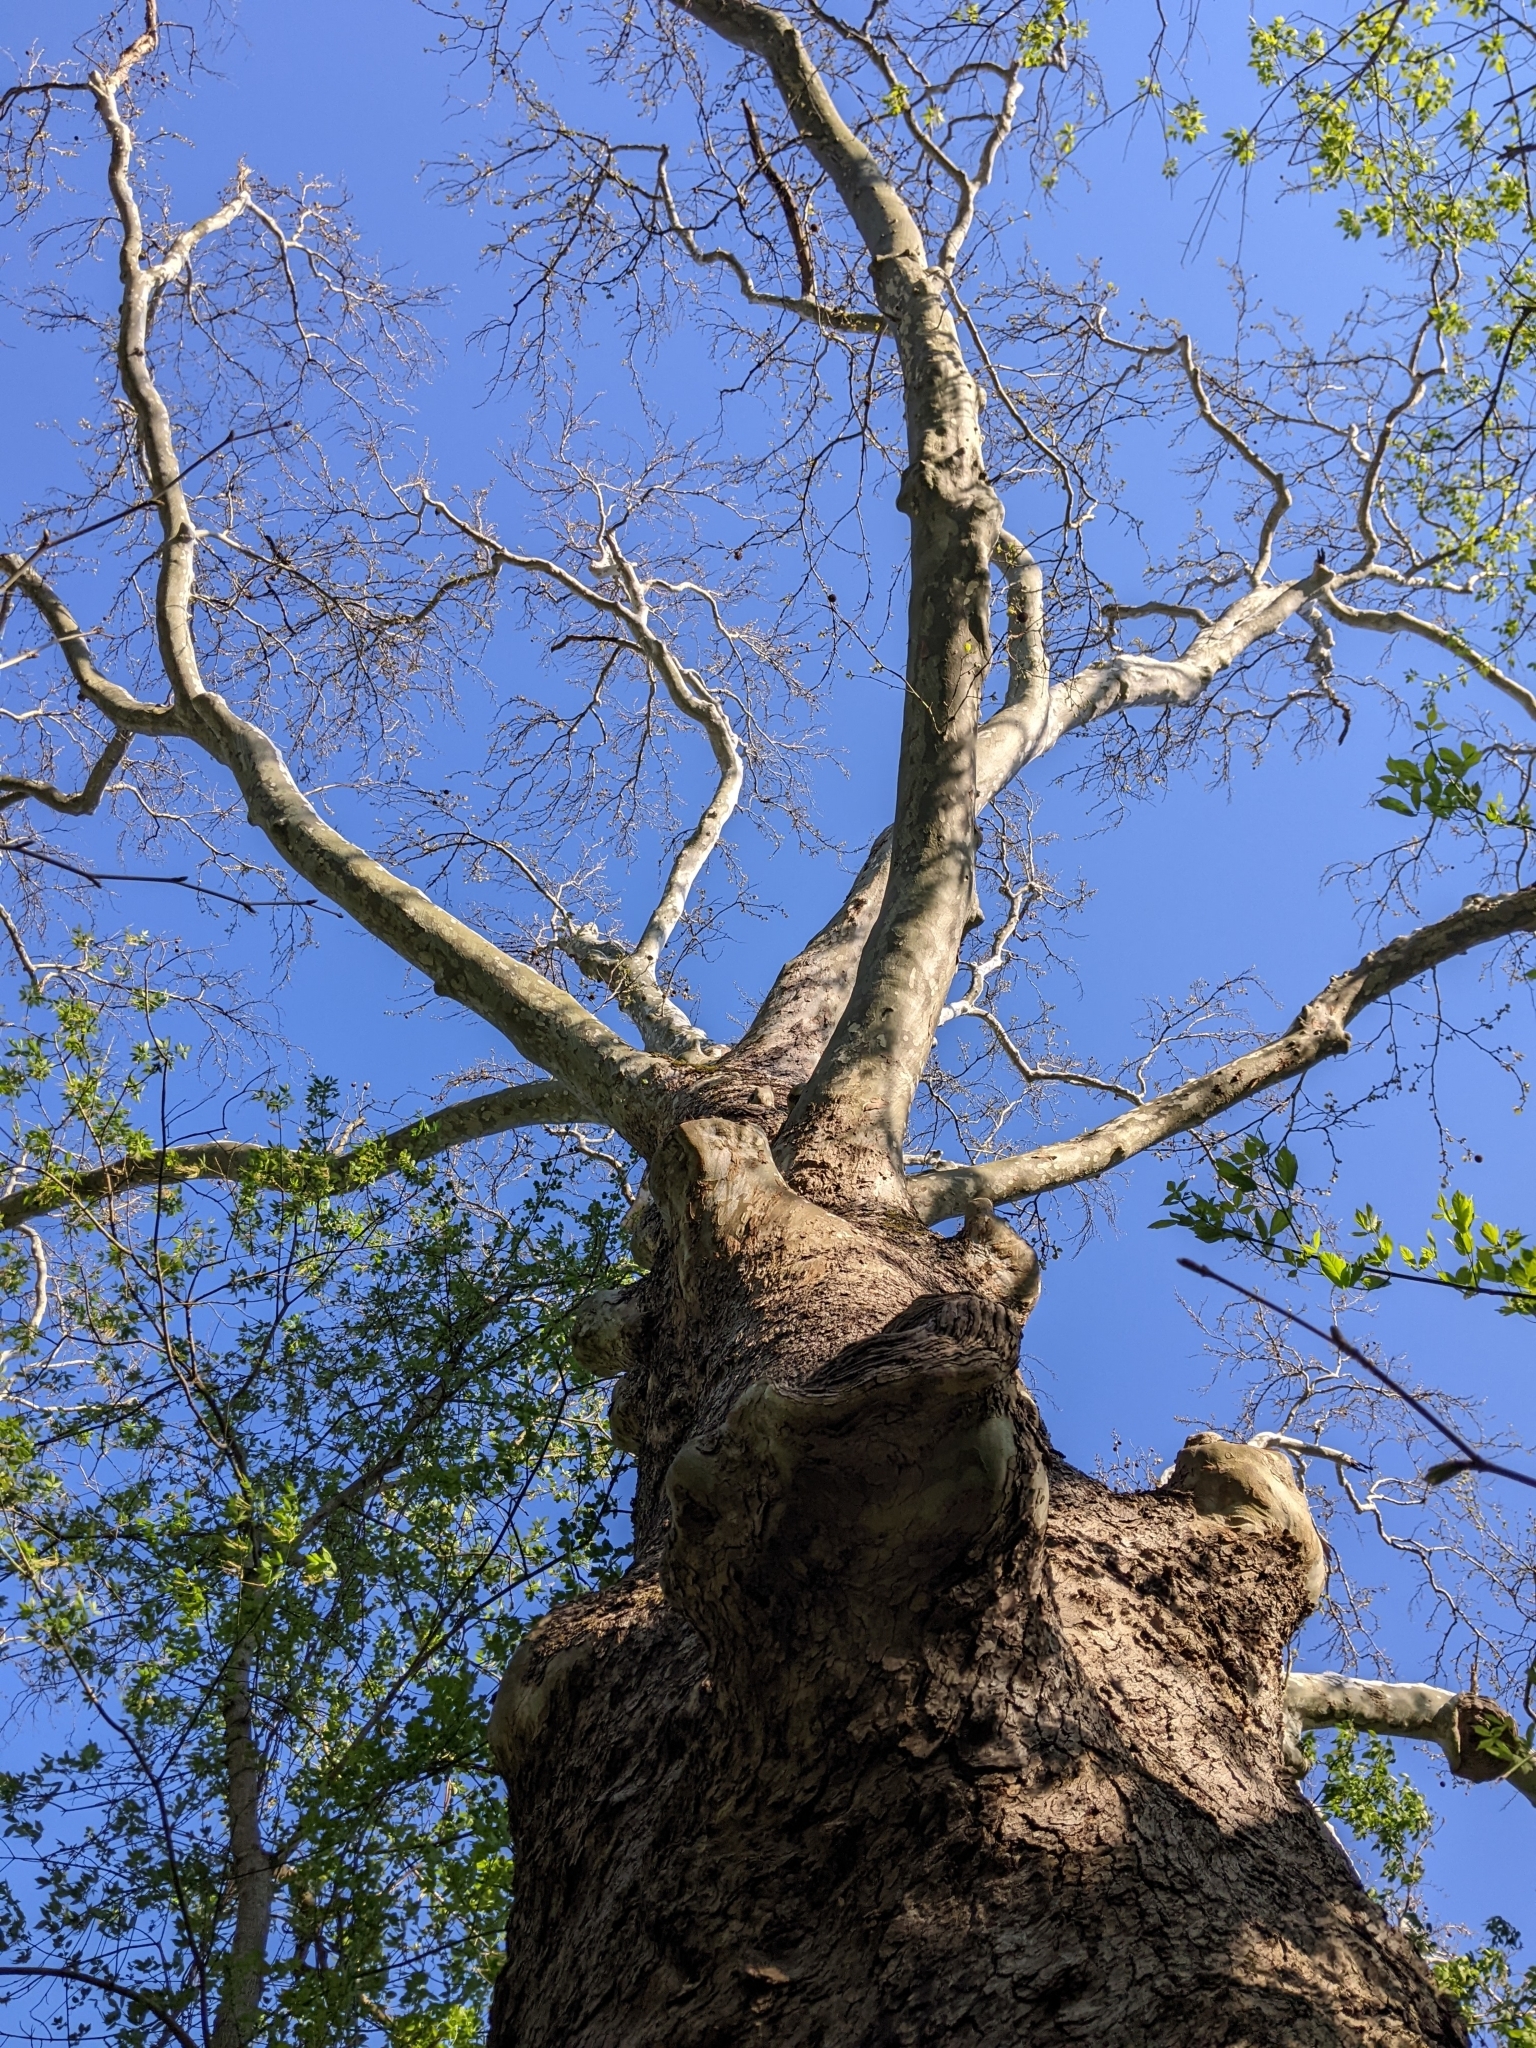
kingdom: Plantae
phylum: Tracheophyta
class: Magnoliopsida
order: Proteales
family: Platanaceae
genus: Platanus
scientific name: Platanus occidentalis
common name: American sycamore
